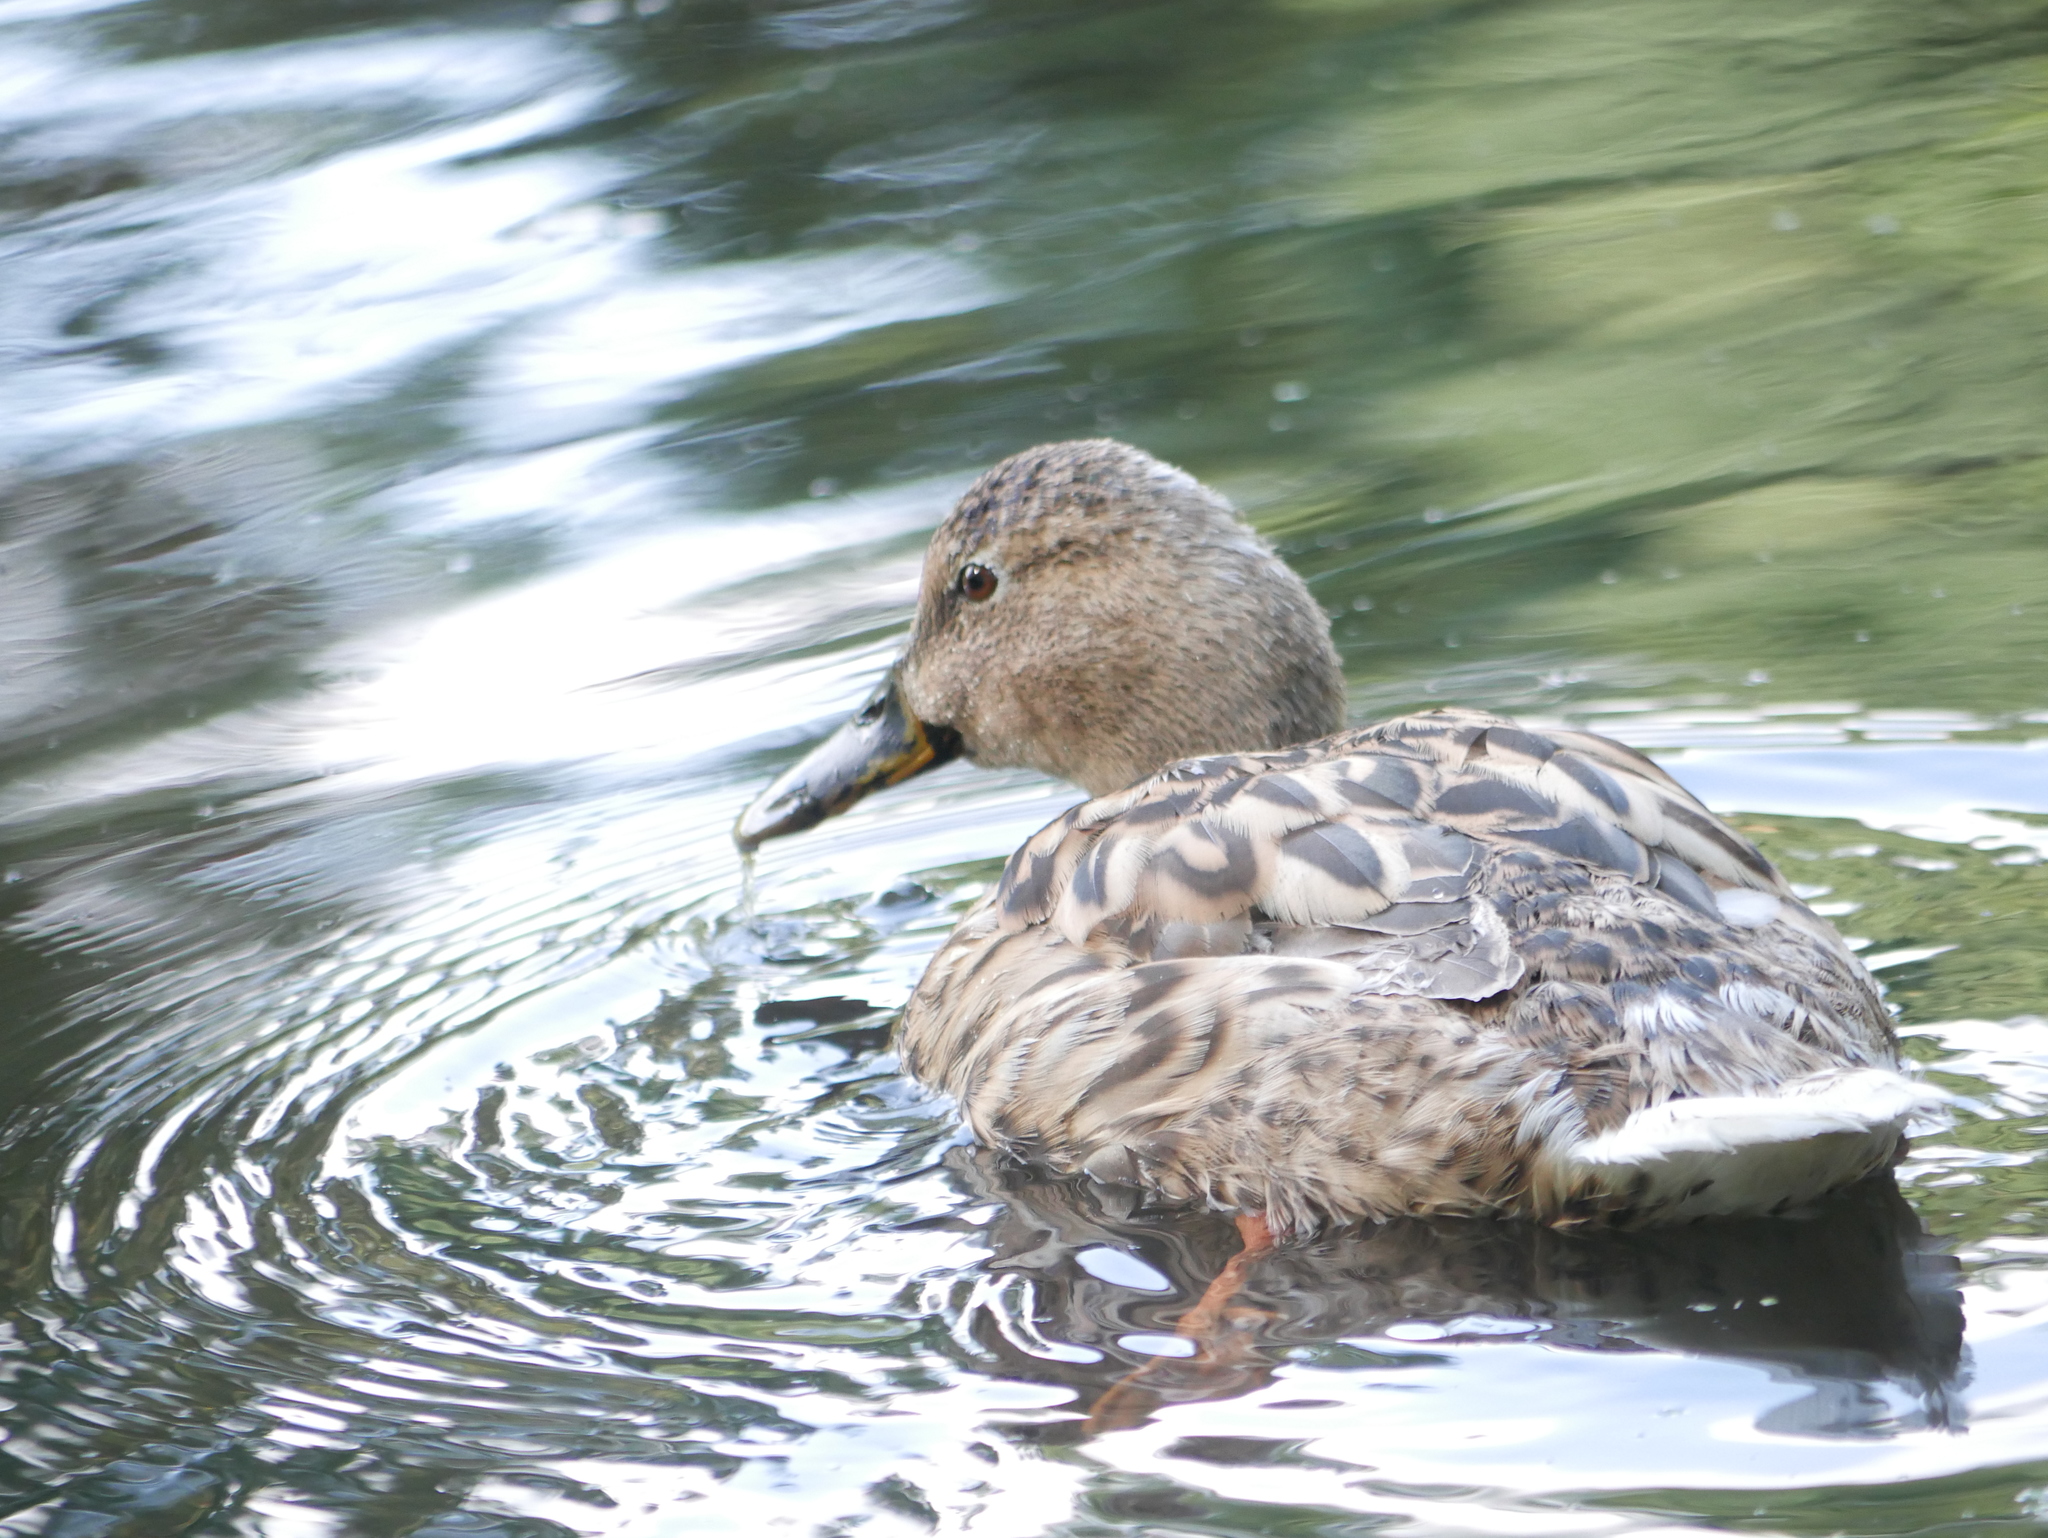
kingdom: Animalia
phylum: Chordata
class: Aves
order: Anseriformes
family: Anatidae
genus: Anas
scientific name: Anas platyrhynchos
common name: Mallard
